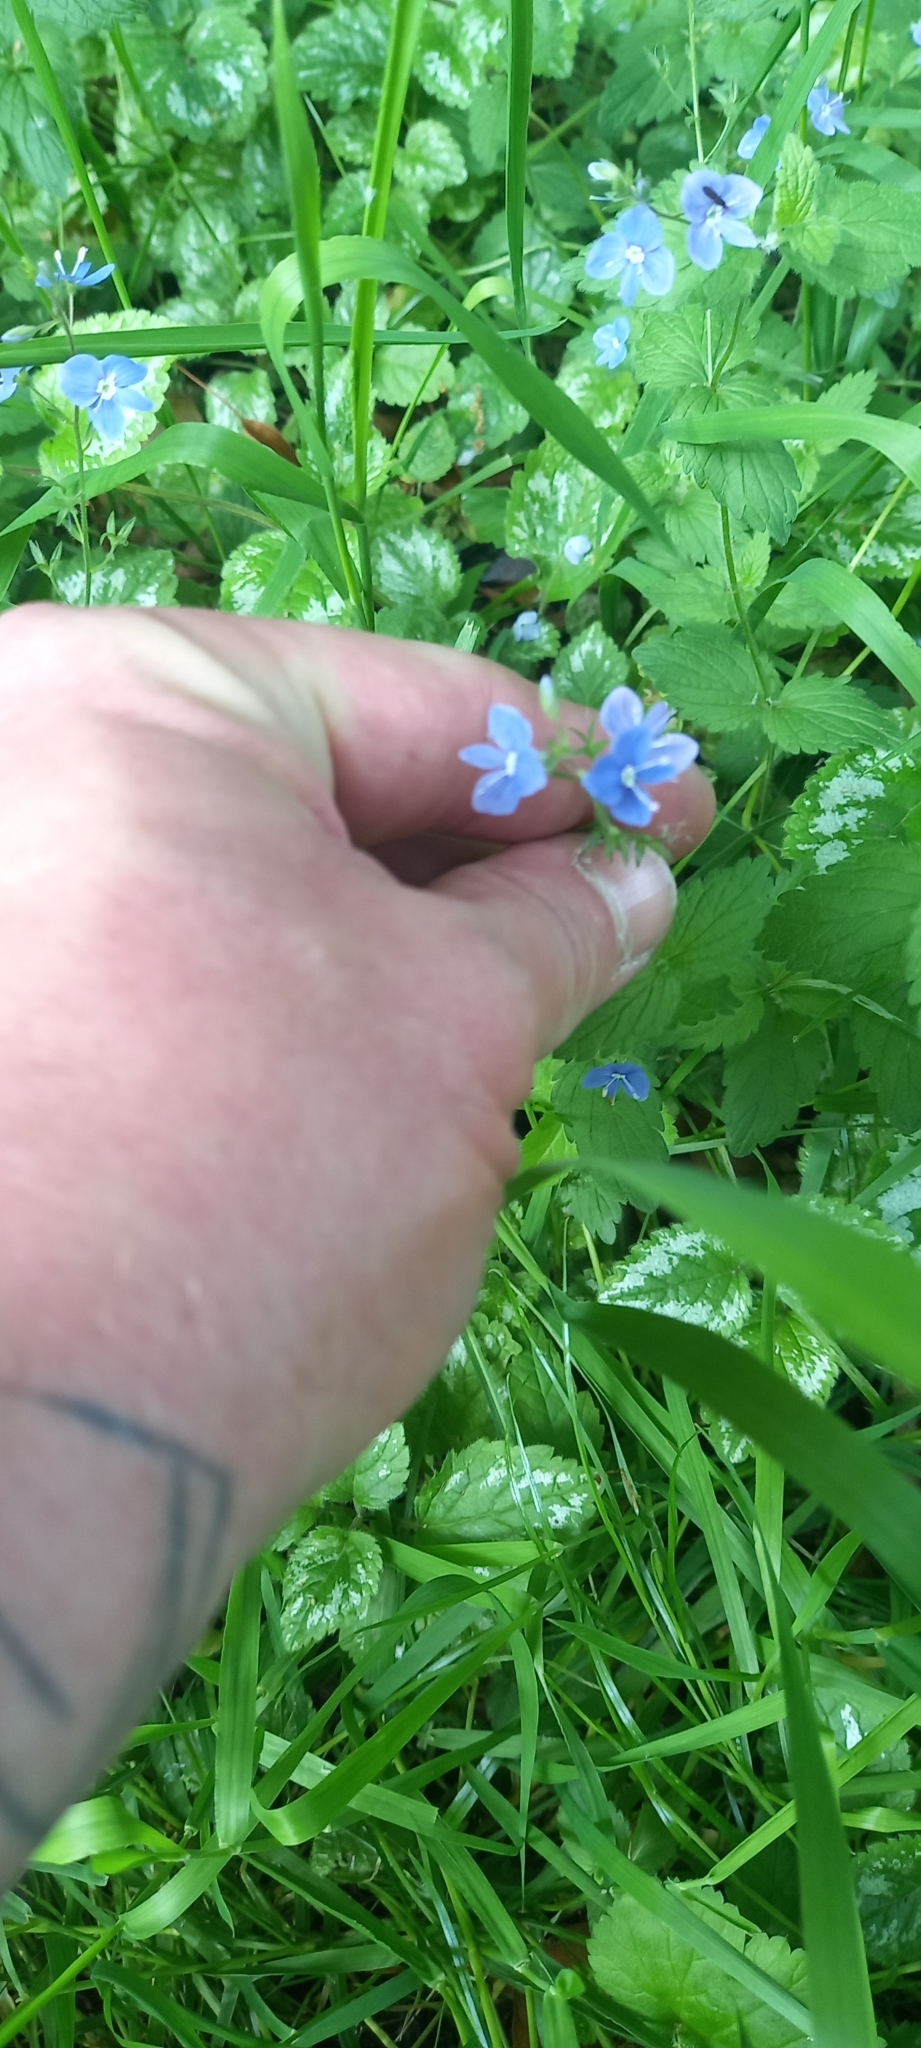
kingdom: Plantae
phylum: Tracheophyta
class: Magnoliopsida
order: Lamiales
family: Plantaginaceae
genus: Veronica
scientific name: Veronica chamaedrys
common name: Germander speedwell
